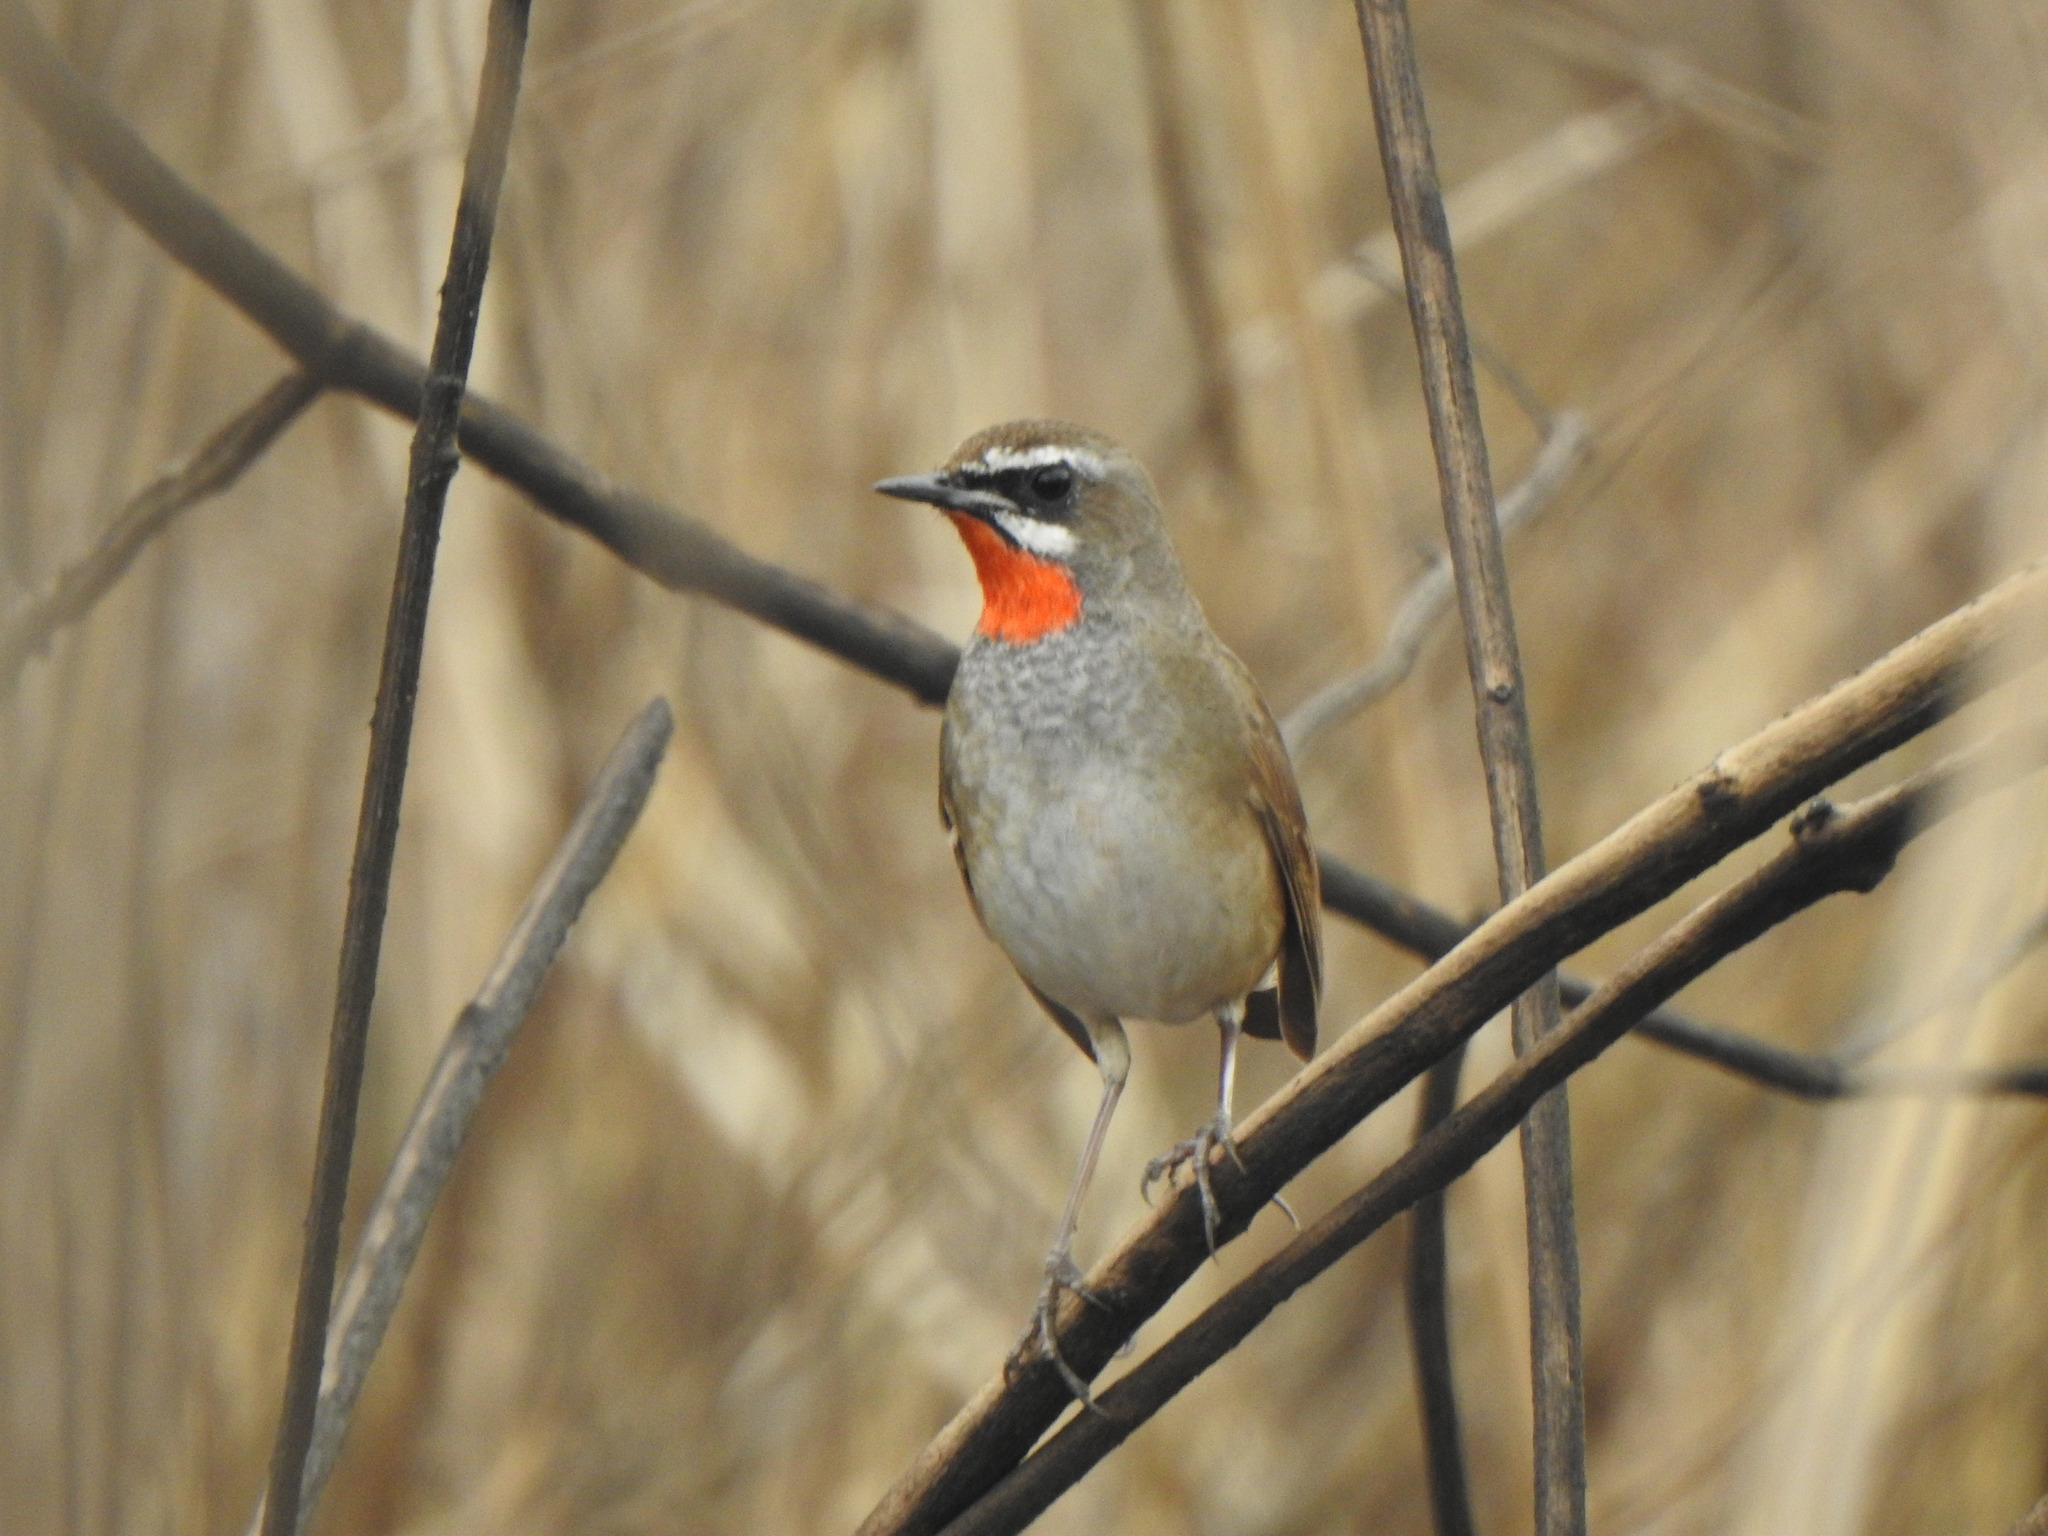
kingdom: Animalia
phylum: Chordata
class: Aves
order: Passeriformes
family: Muscicapidae
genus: Luscinia
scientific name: Luscinia calliope
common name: Siberian rubythroat
